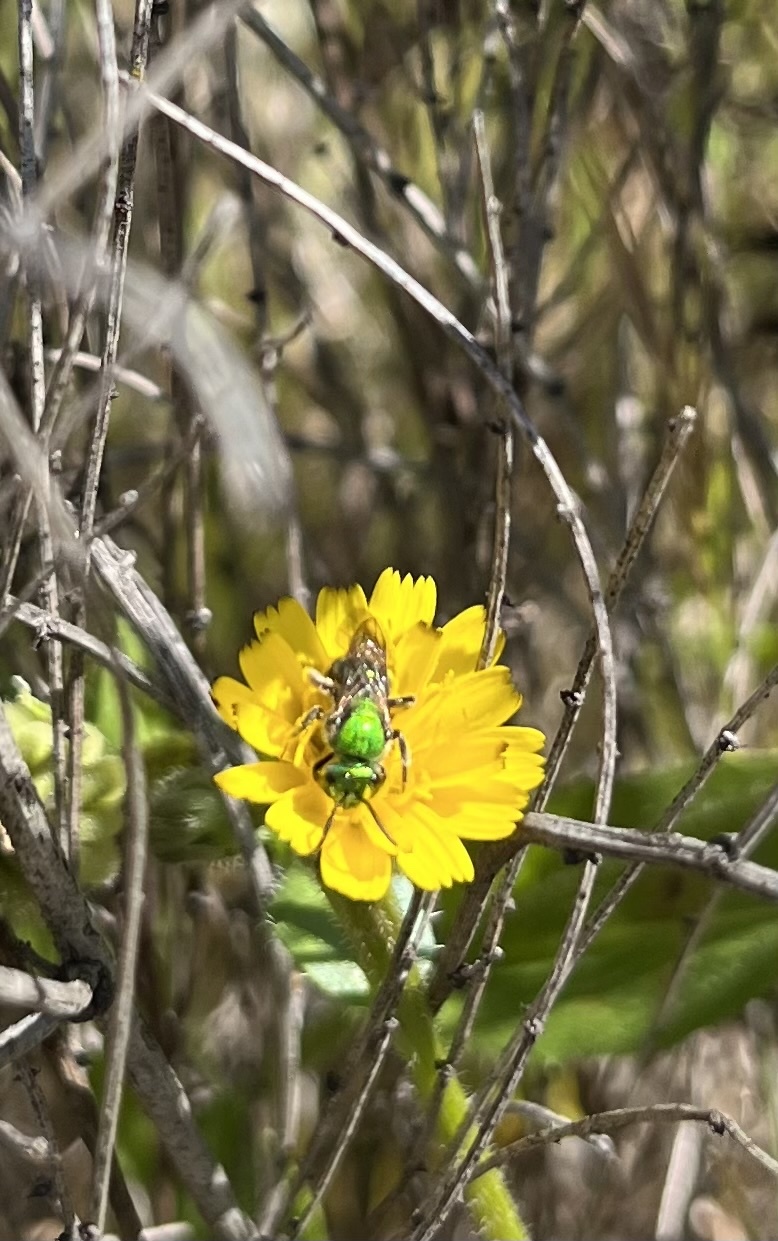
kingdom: Animalia
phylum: Arthropoda
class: Insecta
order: Hymenoptera
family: Halictidae
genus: Augochlorella
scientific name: Augochlorella pomoniella
